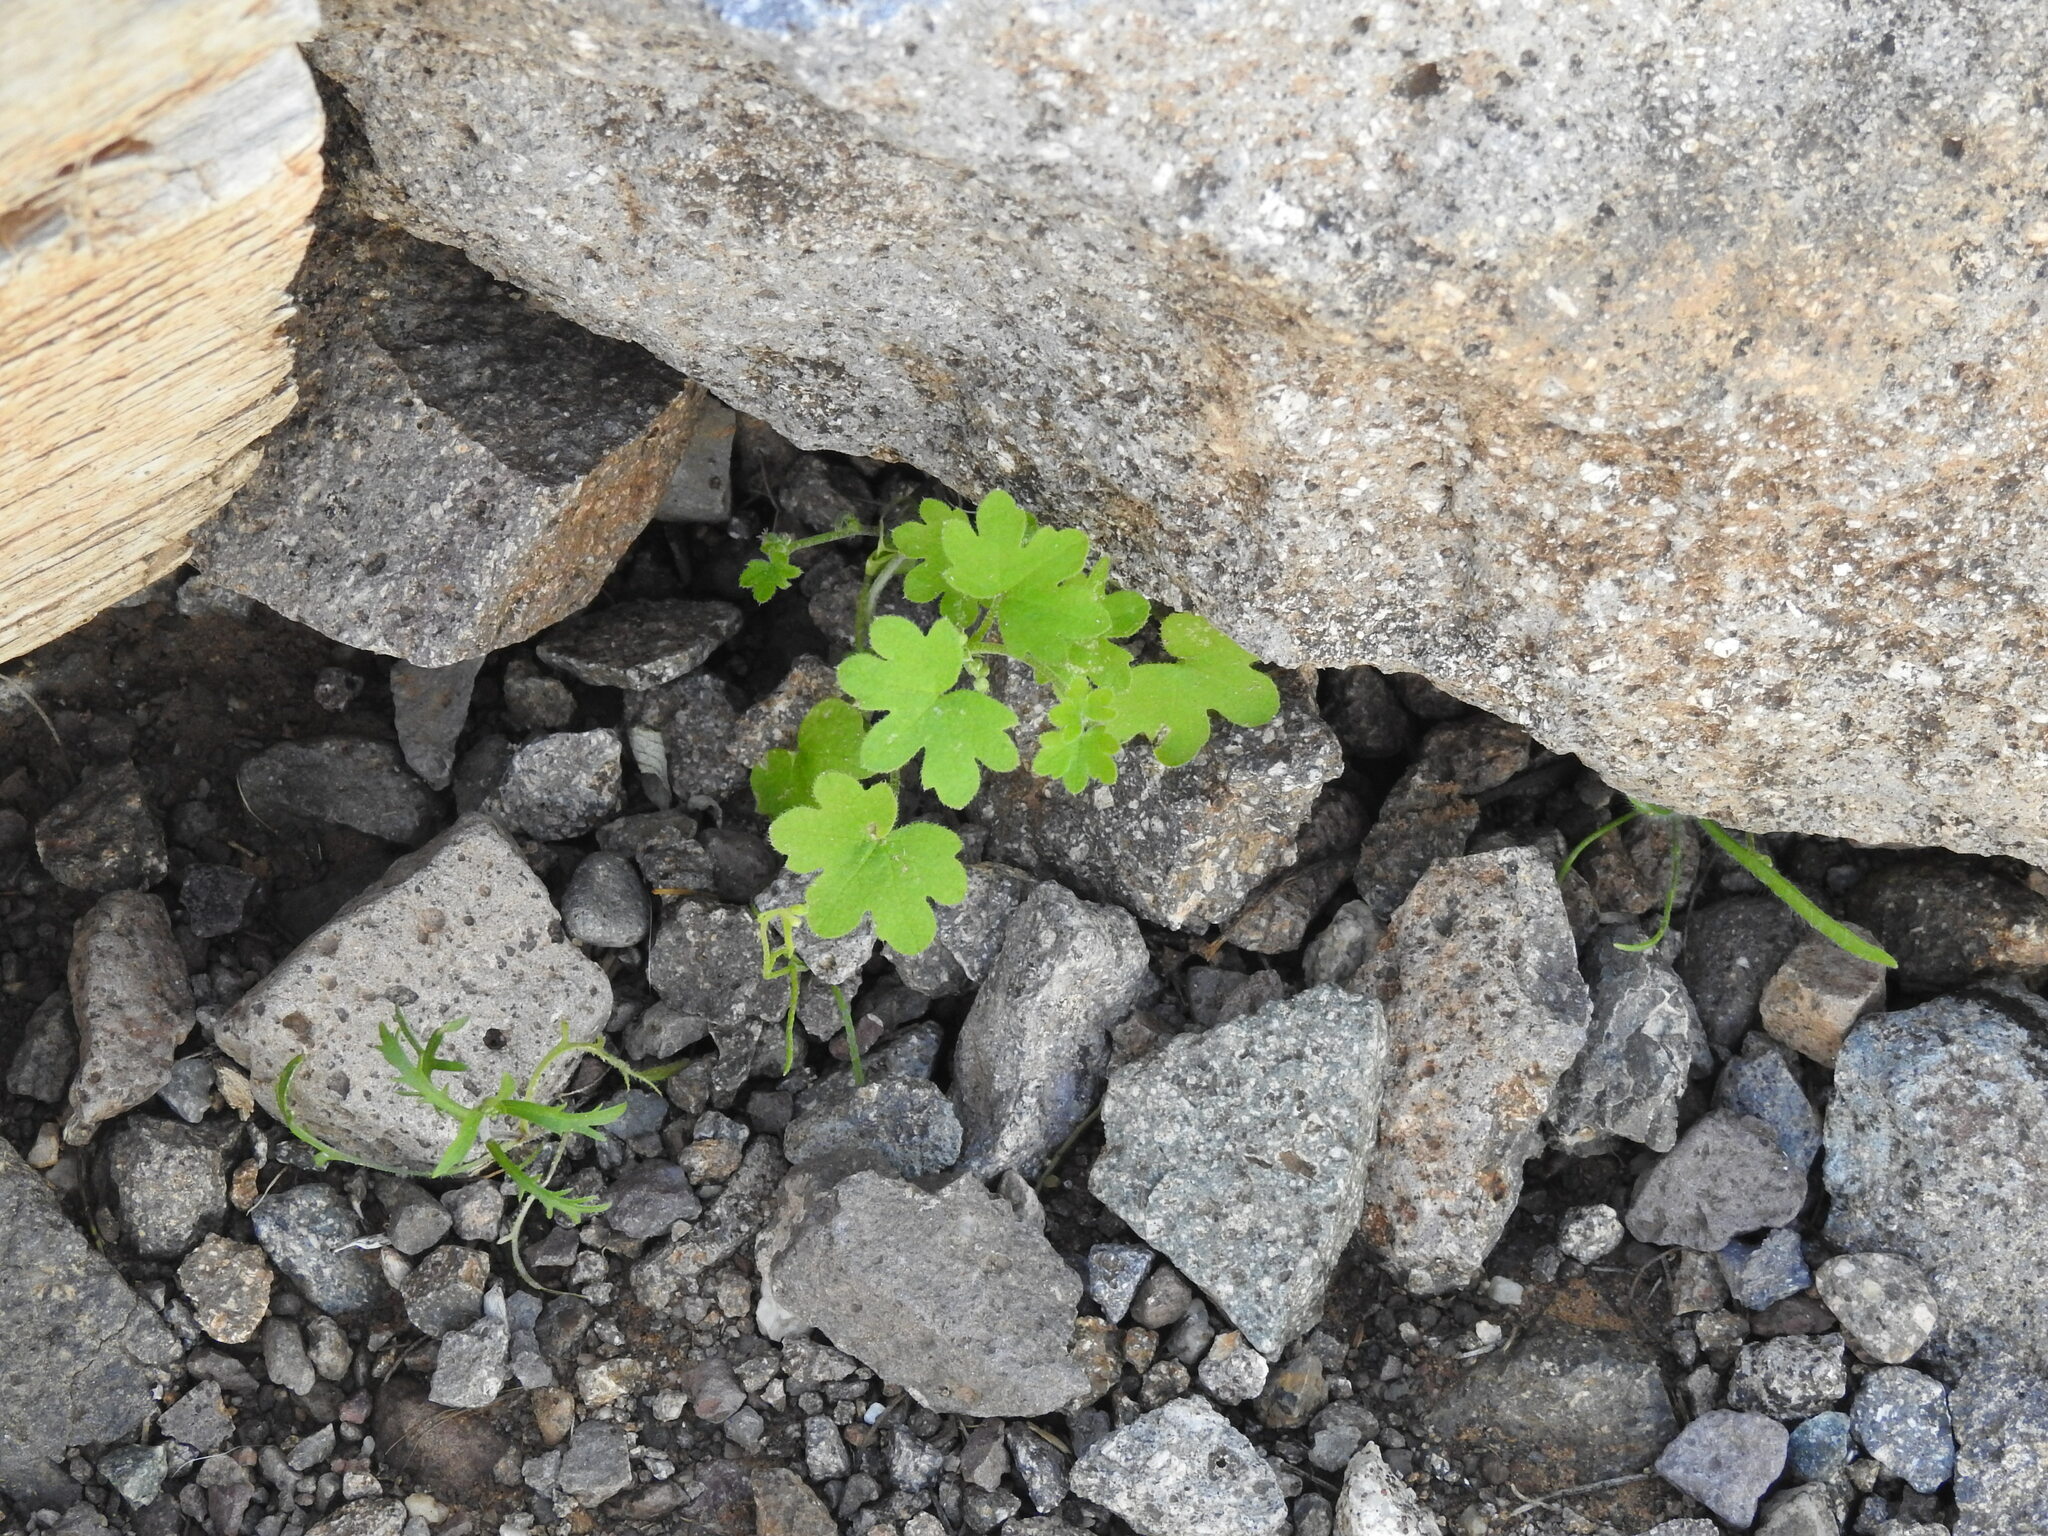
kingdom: Plantae
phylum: Tracheophyta
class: Magnoliopsida
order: Apiales
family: Apiaceae
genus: Bowlesia
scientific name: Bowlesia incana
